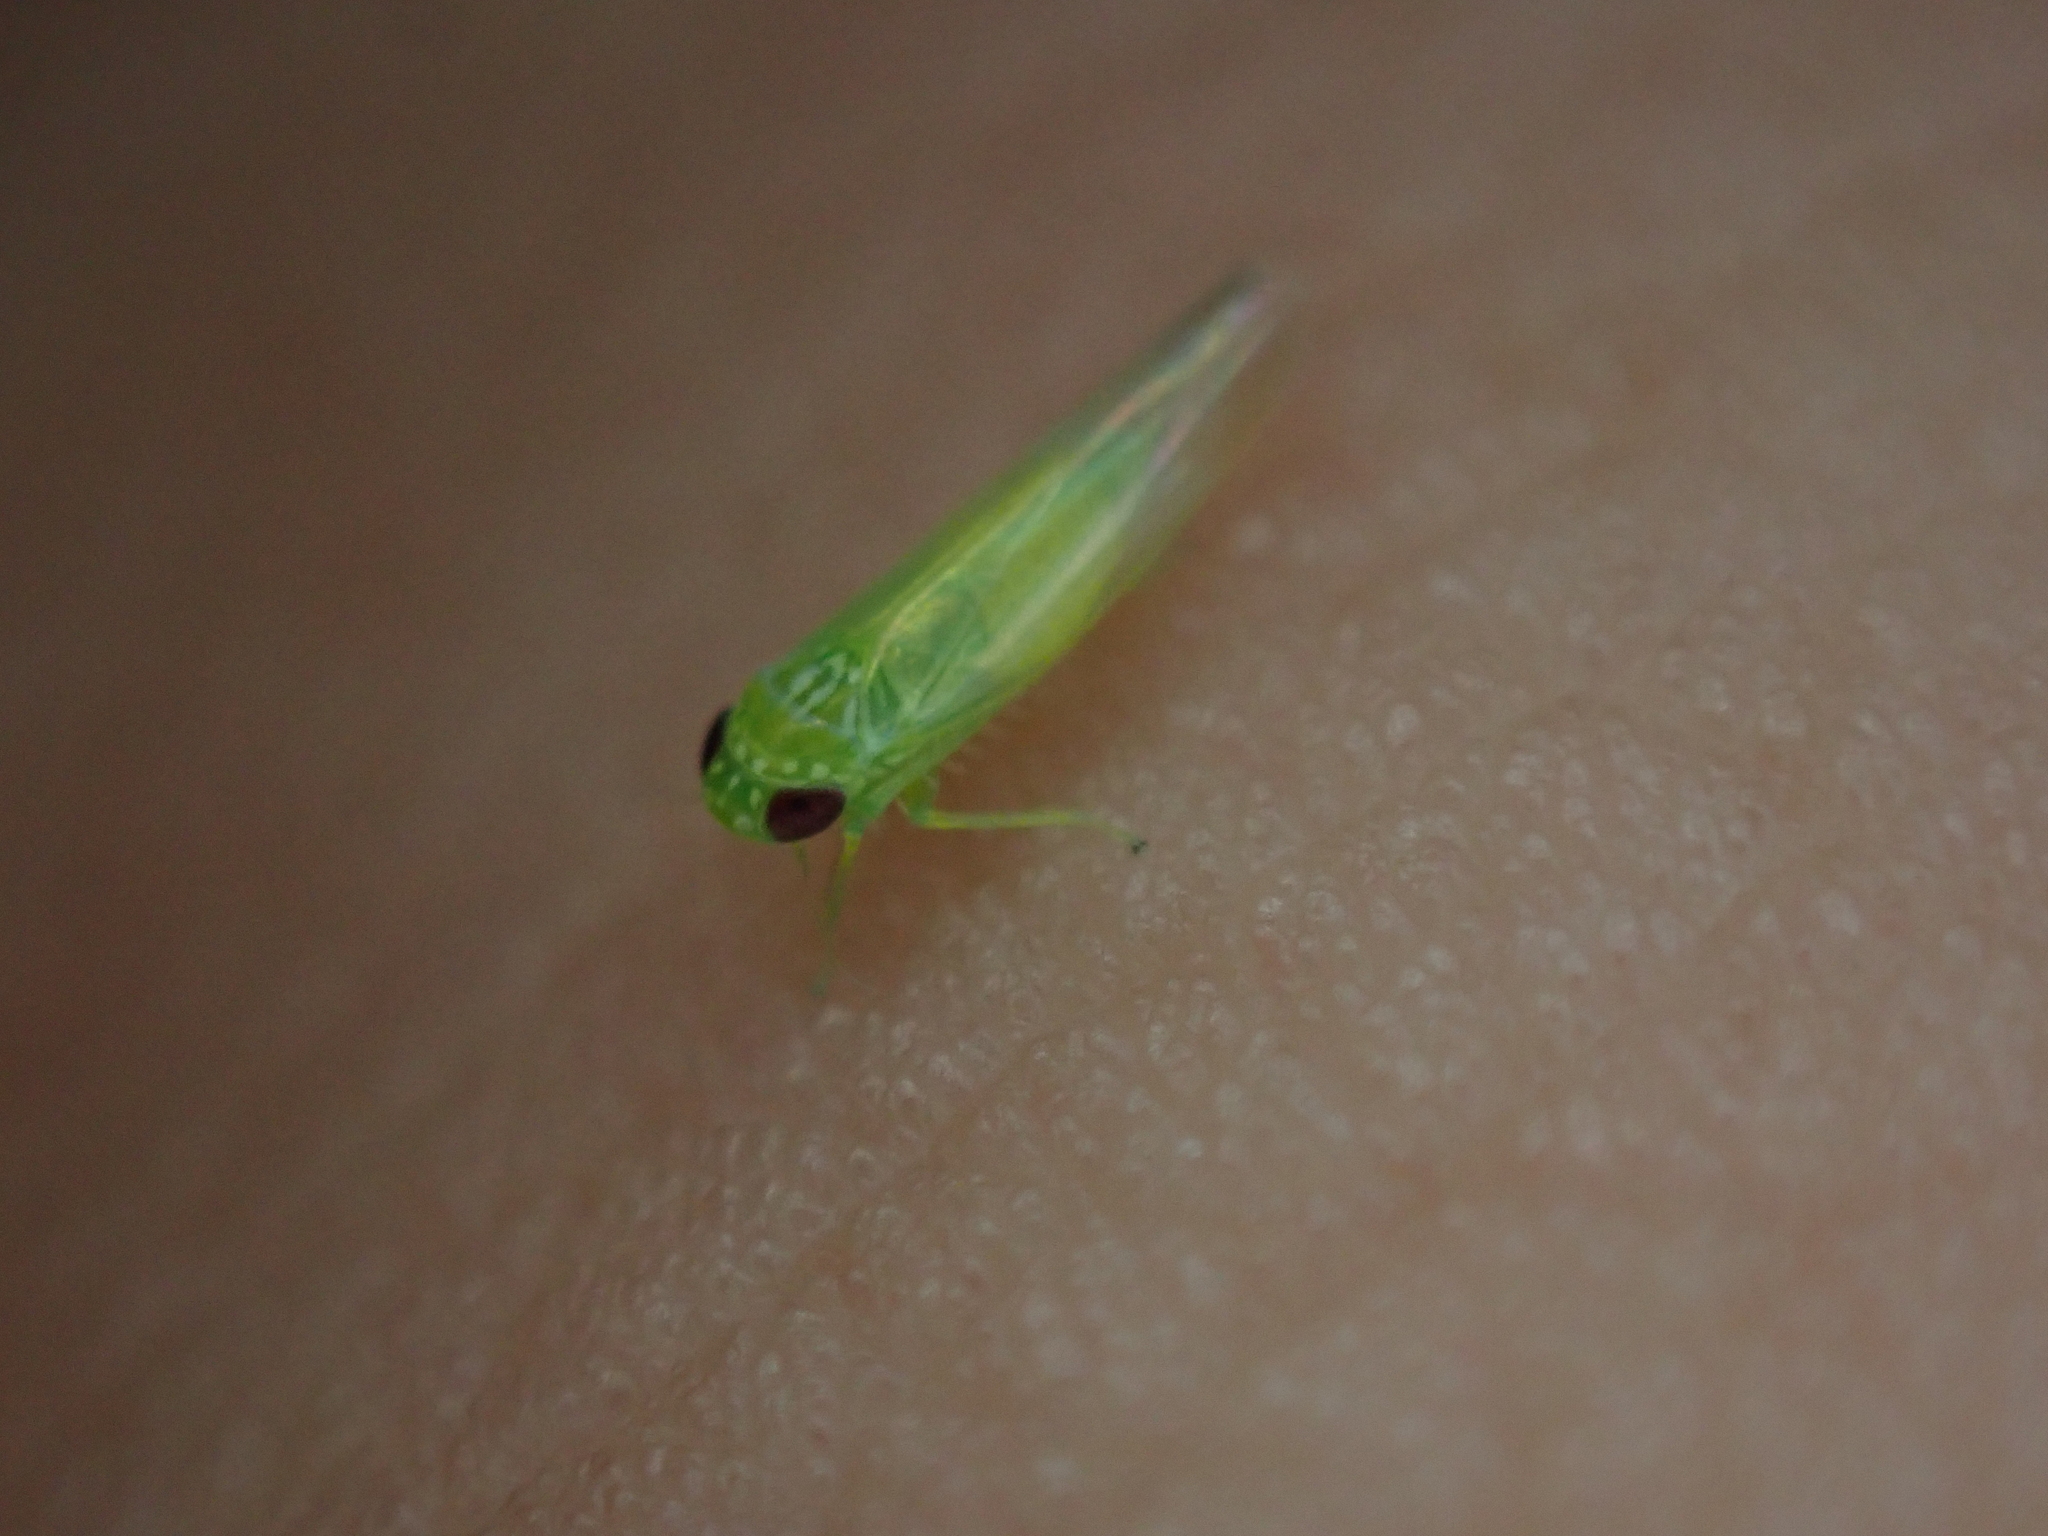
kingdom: Animalia
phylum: Arthropoda
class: Insecta
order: Hemiptera
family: Cicadellidae
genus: Empoasca
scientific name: Empoasca fabae
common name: Potato leafhopper
